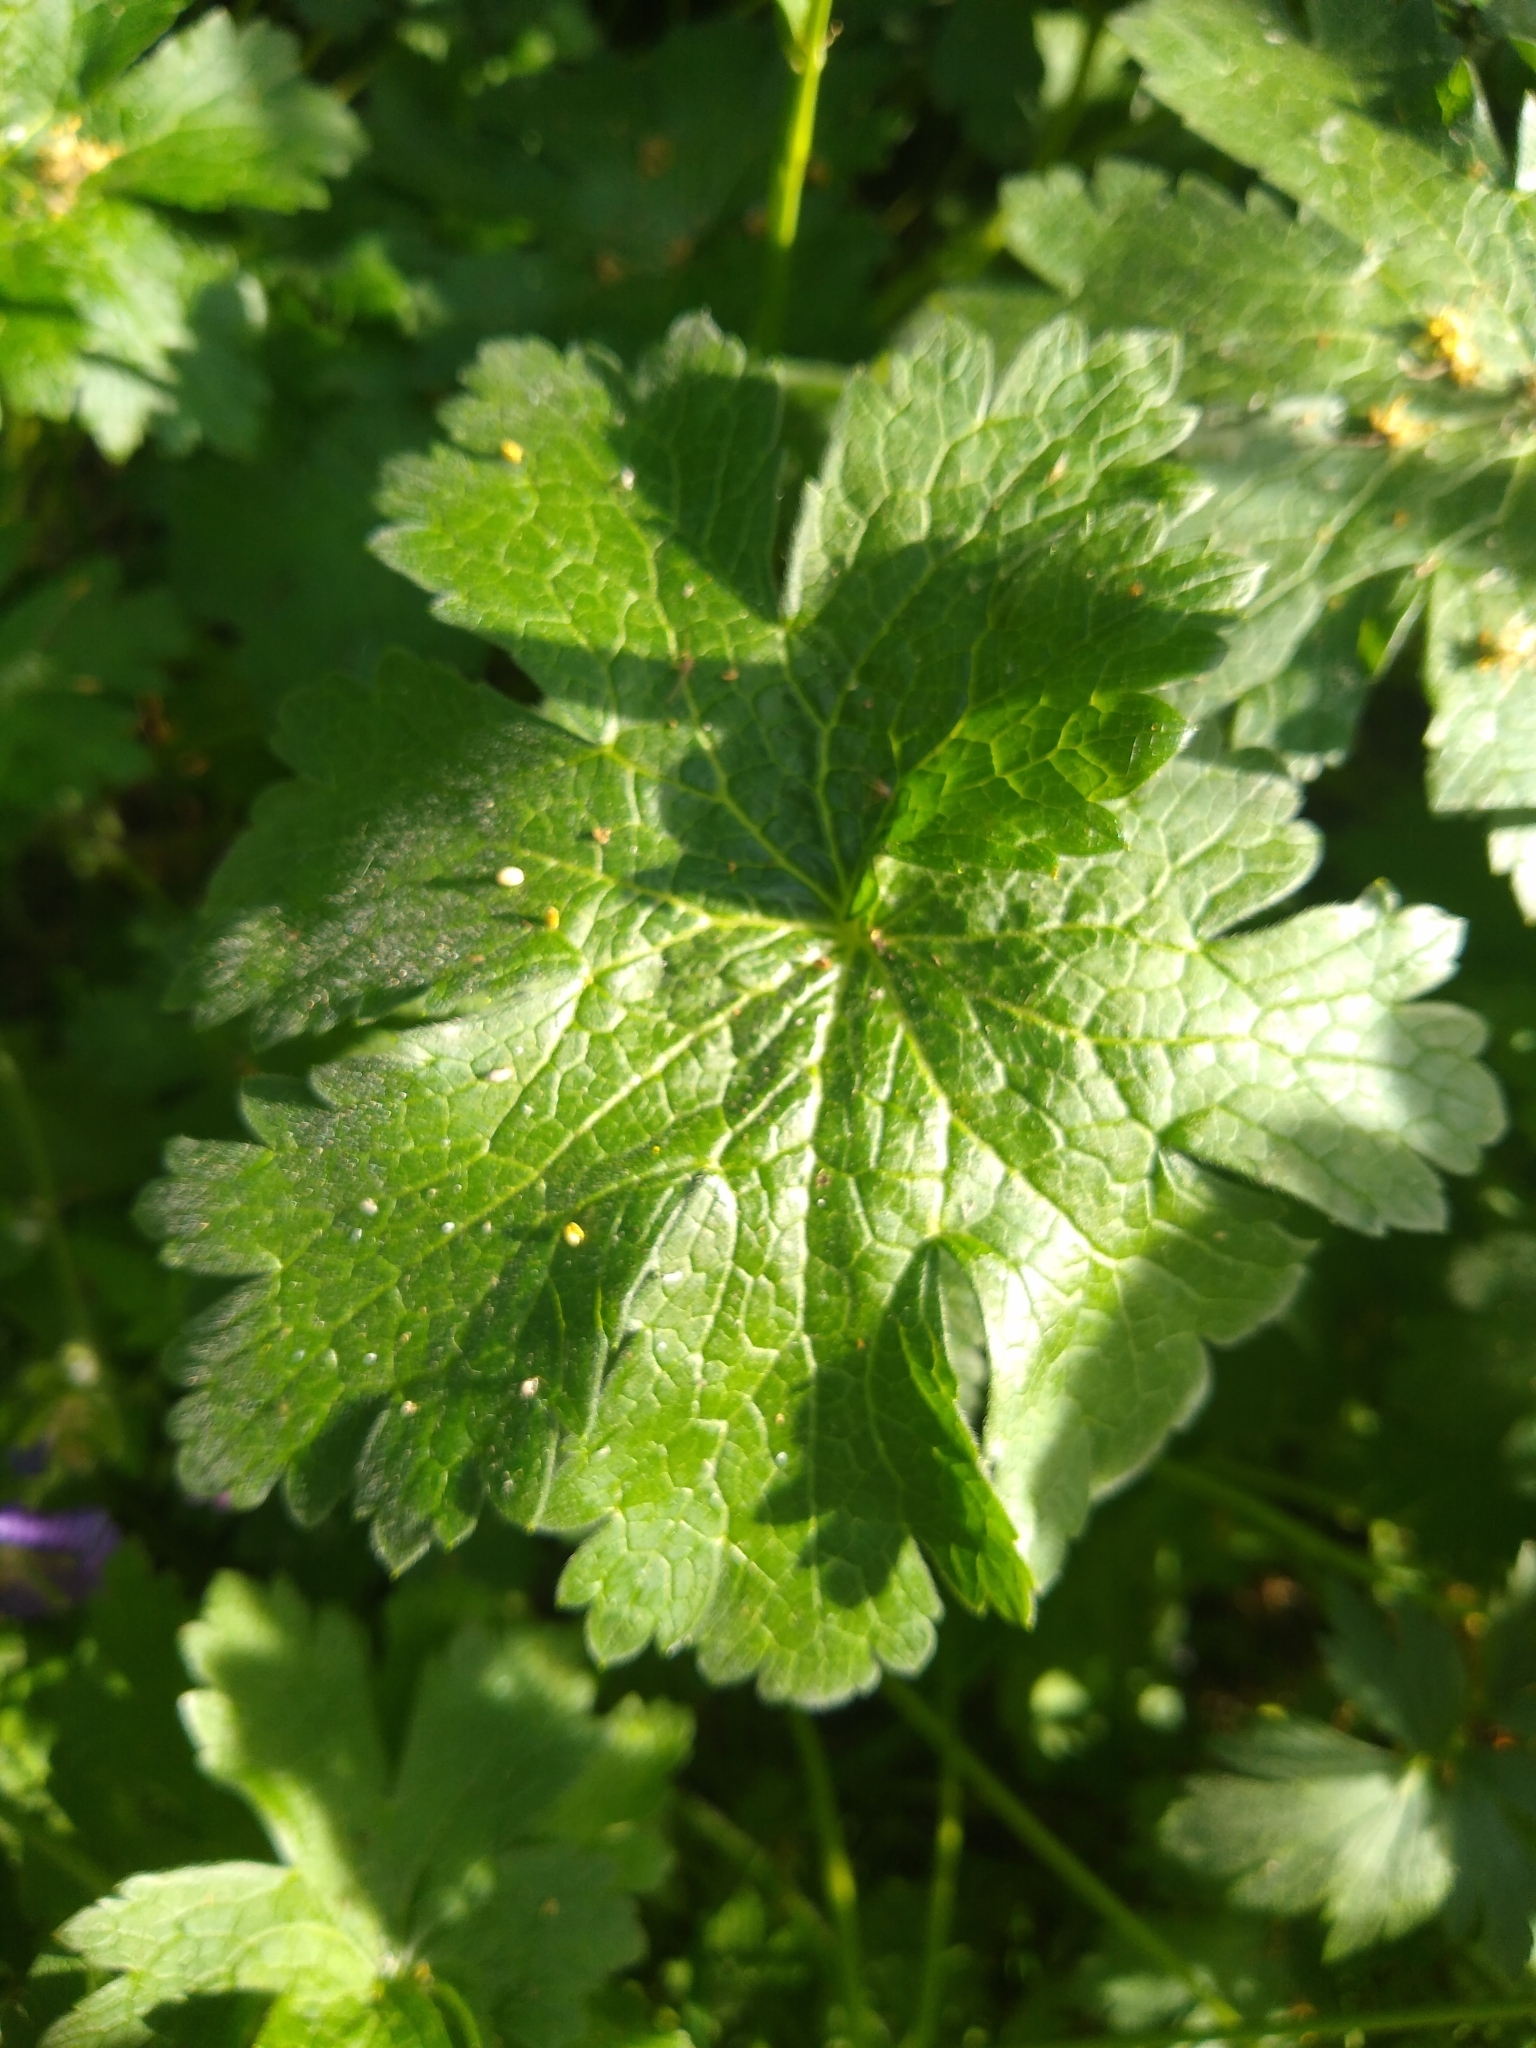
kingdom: Plantae
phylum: Tracheophyta
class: Magnoliopsida
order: Geraniales
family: Geraniaceae
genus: Geranium
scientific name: Geranium oxonianum
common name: Druce's crane's-bill
